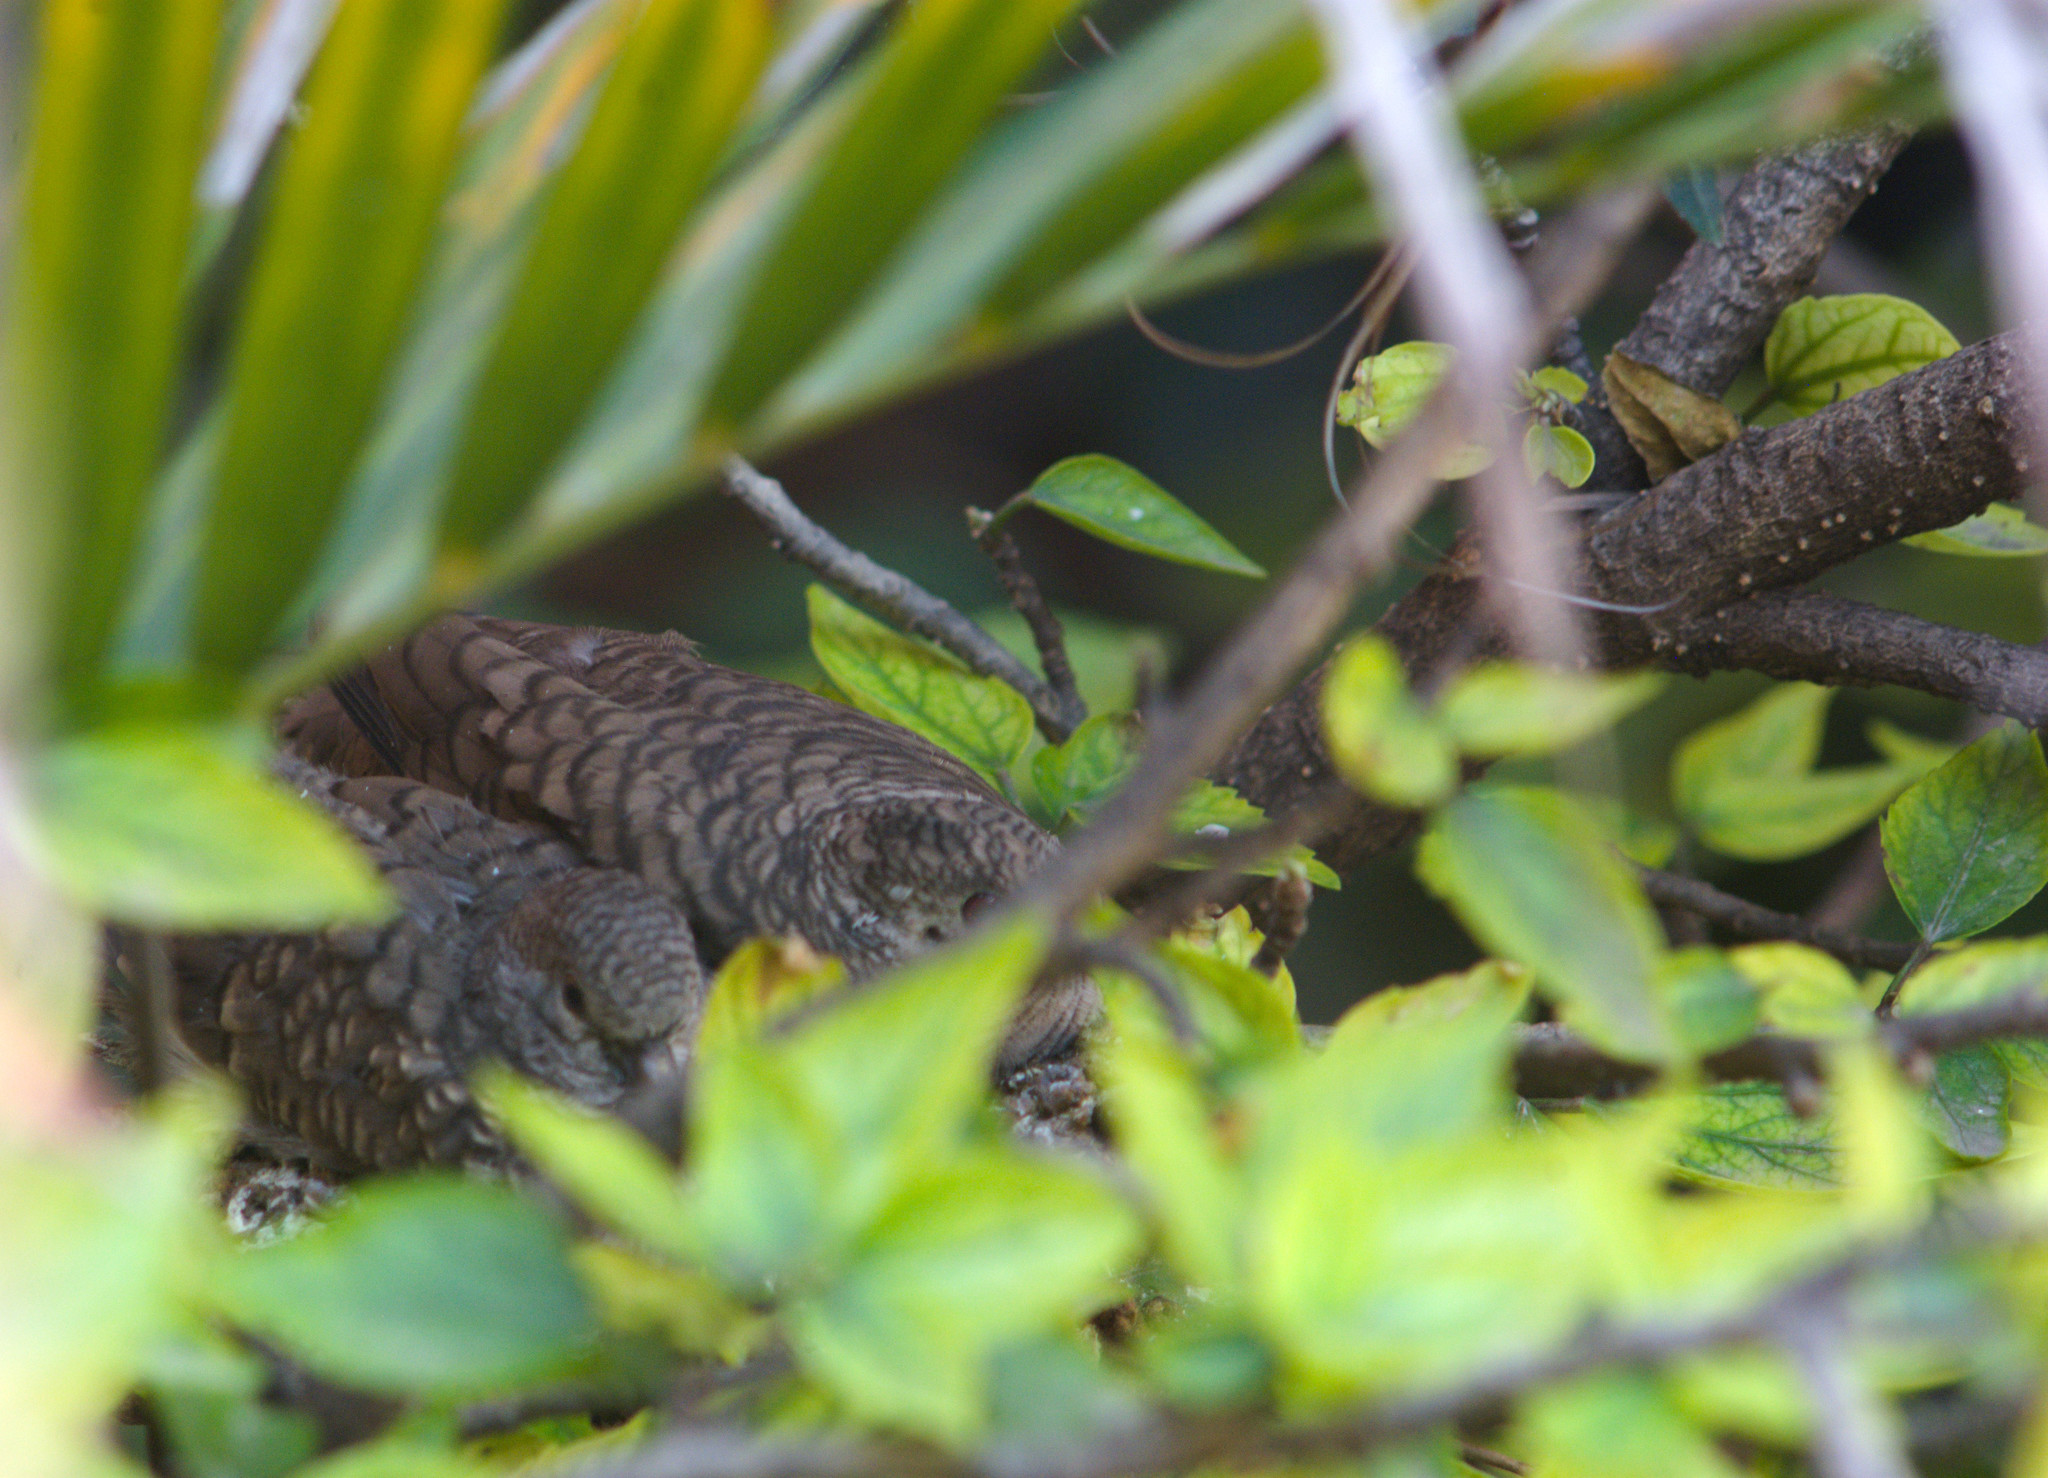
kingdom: Animalia
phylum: Chordata
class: Aves
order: Columbiformes
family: Columbidae
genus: Columbina
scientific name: Columbina inca
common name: Inca dove
